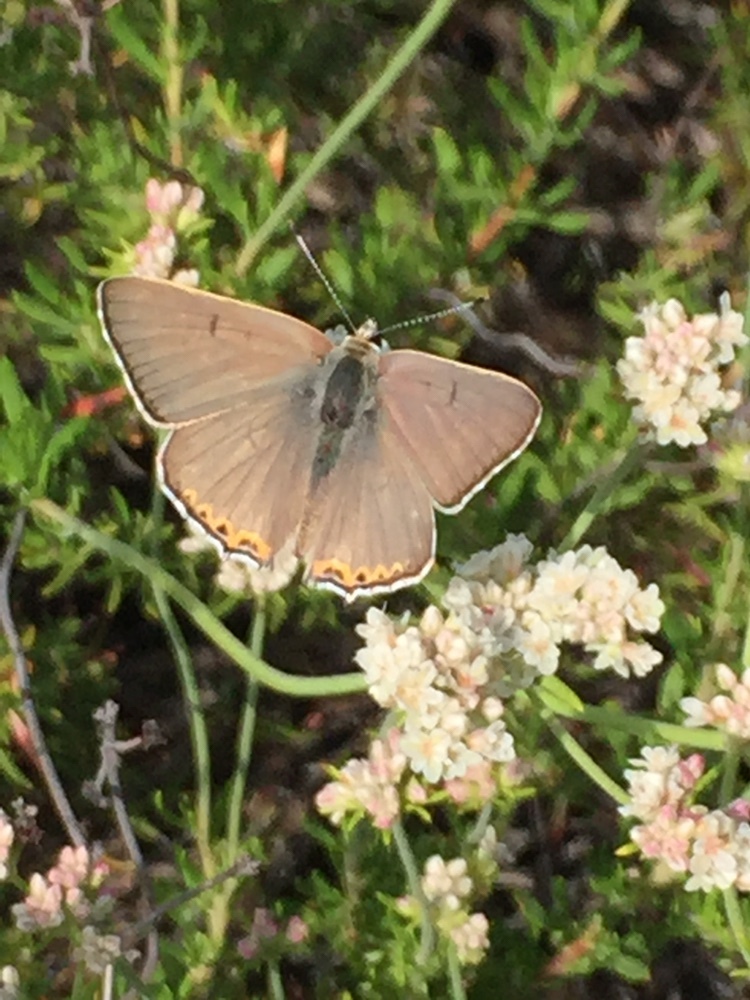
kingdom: Animalia
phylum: Arthropoda
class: Insecta
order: Lepidoptera
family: Lycaenidae
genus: Tharsalea
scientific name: Tharsalea xanthoides
